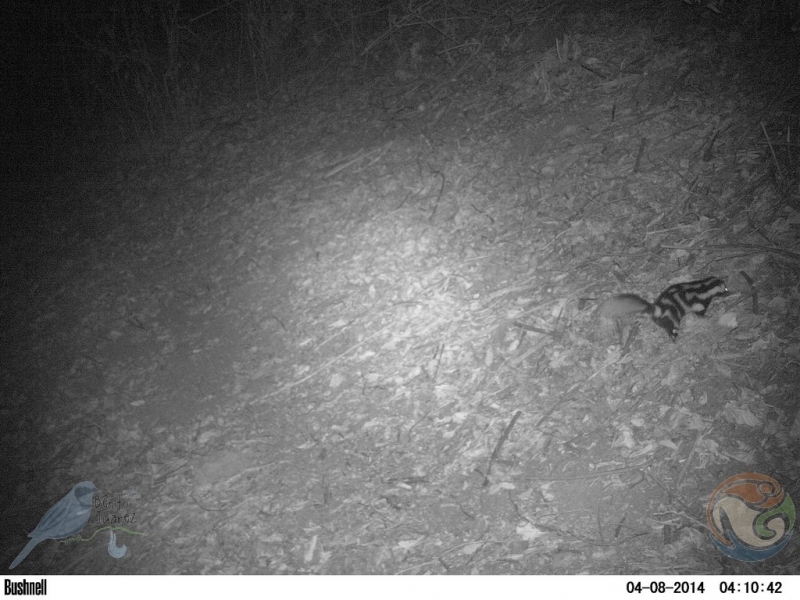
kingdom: Animalia
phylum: Chordata
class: Mammalia
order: Carnivora
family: Mephitidae
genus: Spilogale
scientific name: Spilogale angustifrons
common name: Southern spotted skunk
